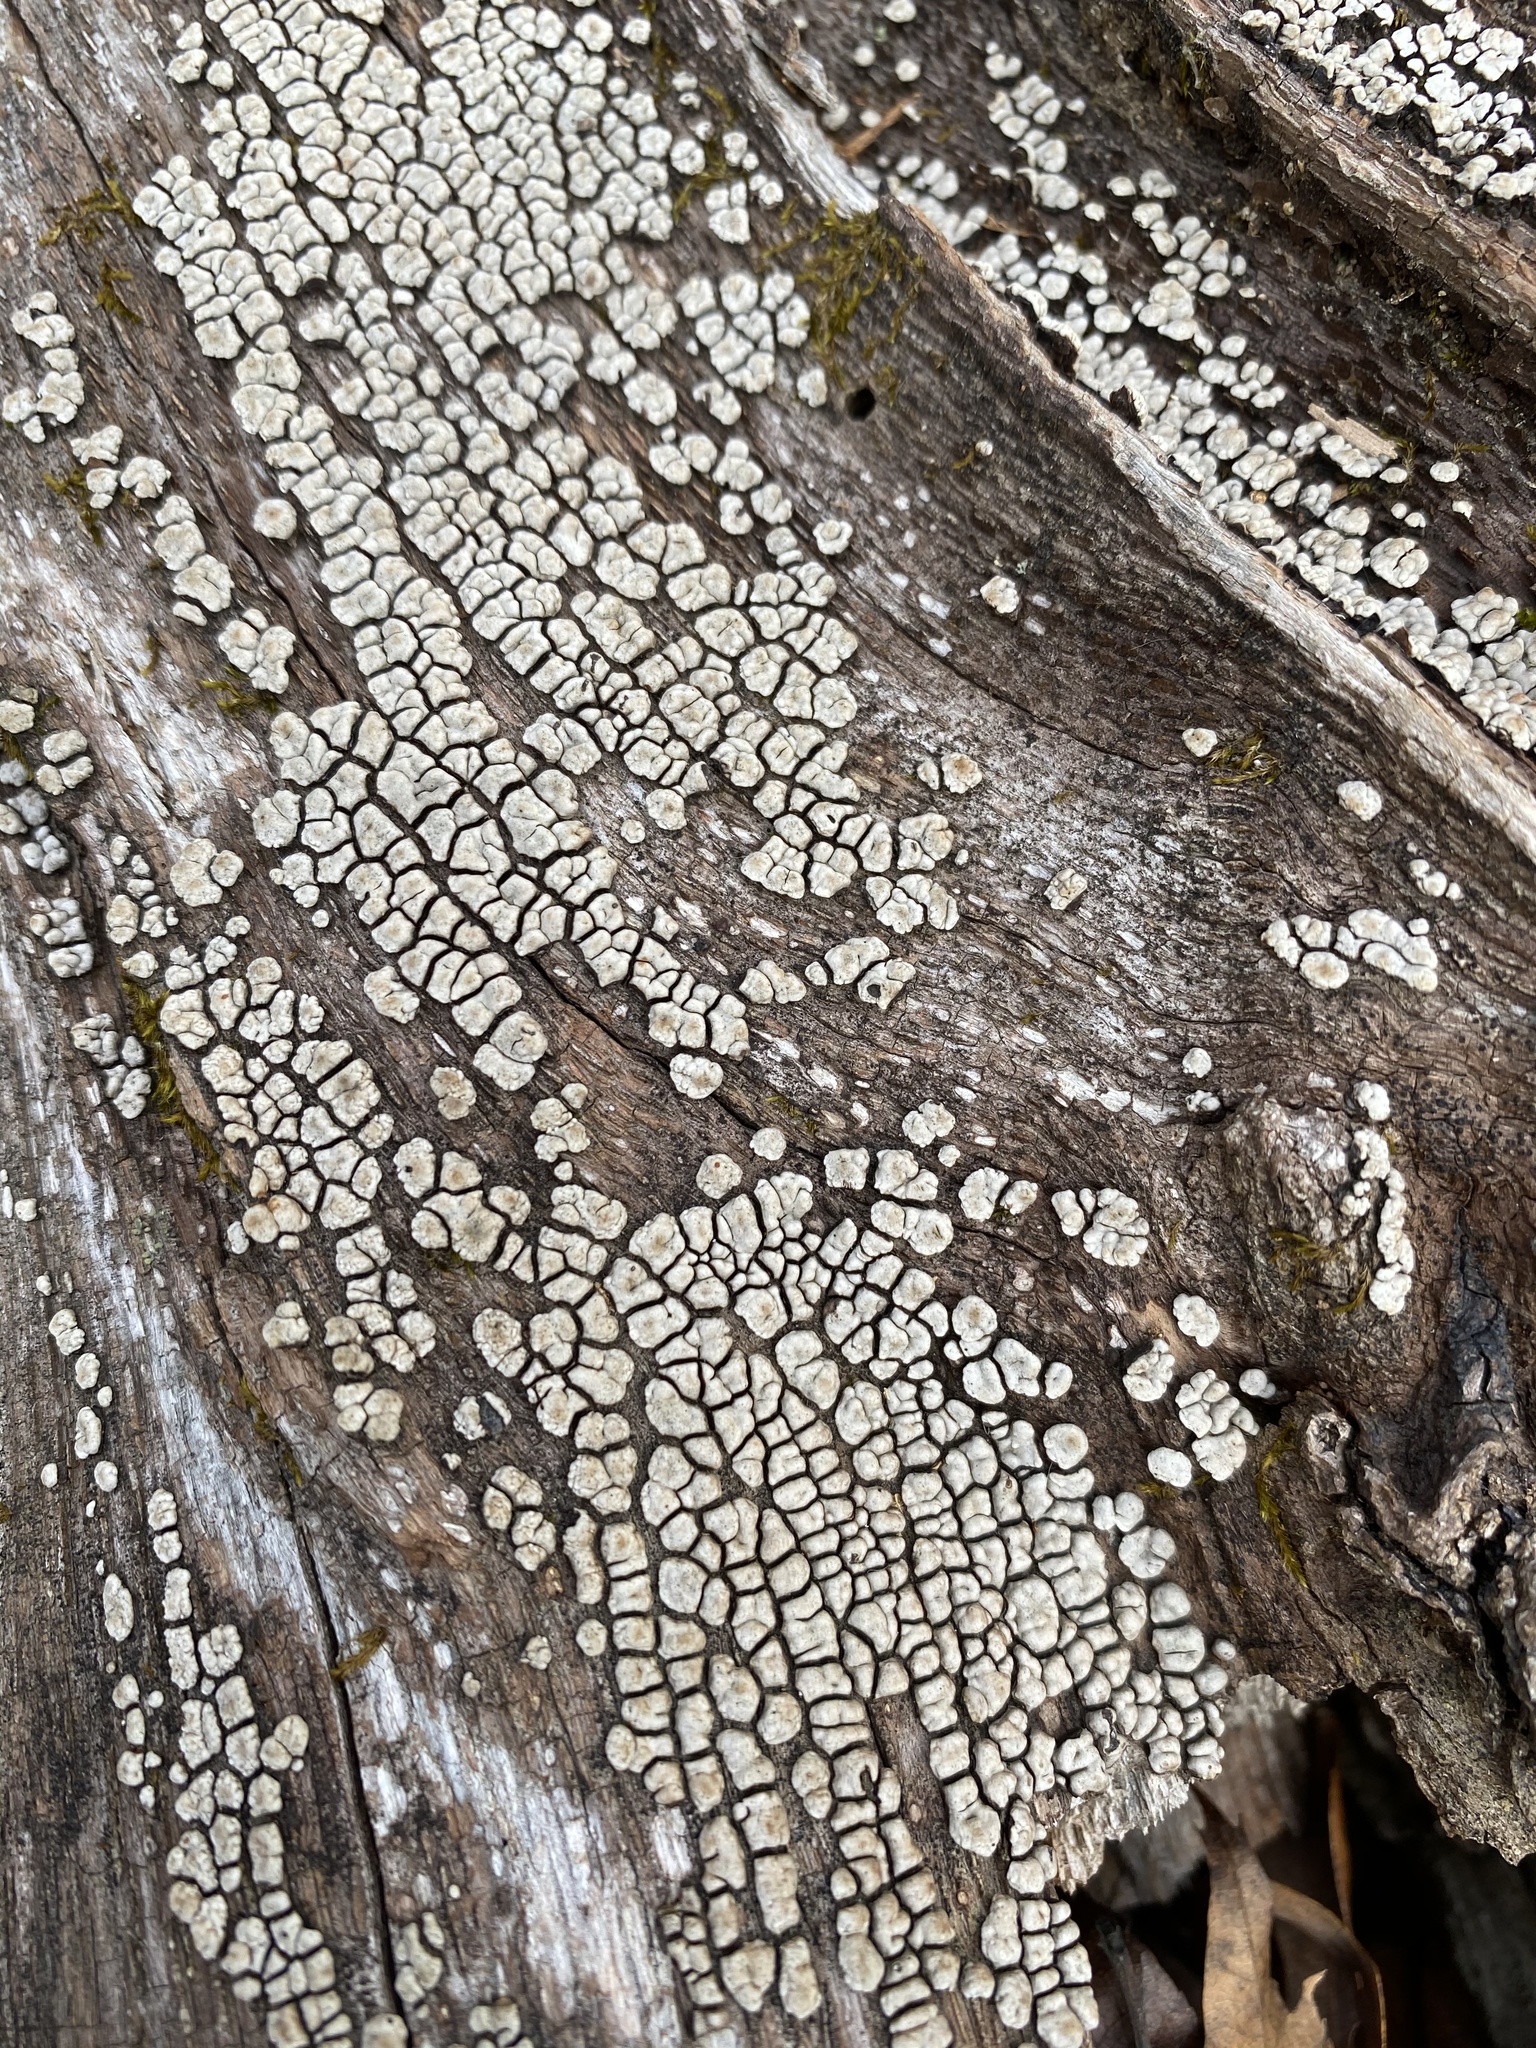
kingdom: Fungi
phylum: Basidiomycota
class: Agaricomycetes
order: Russulales
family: Stereaceae
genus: Xylobolus
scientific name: Xylobolus frustulatus
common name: Ceramic parchment
